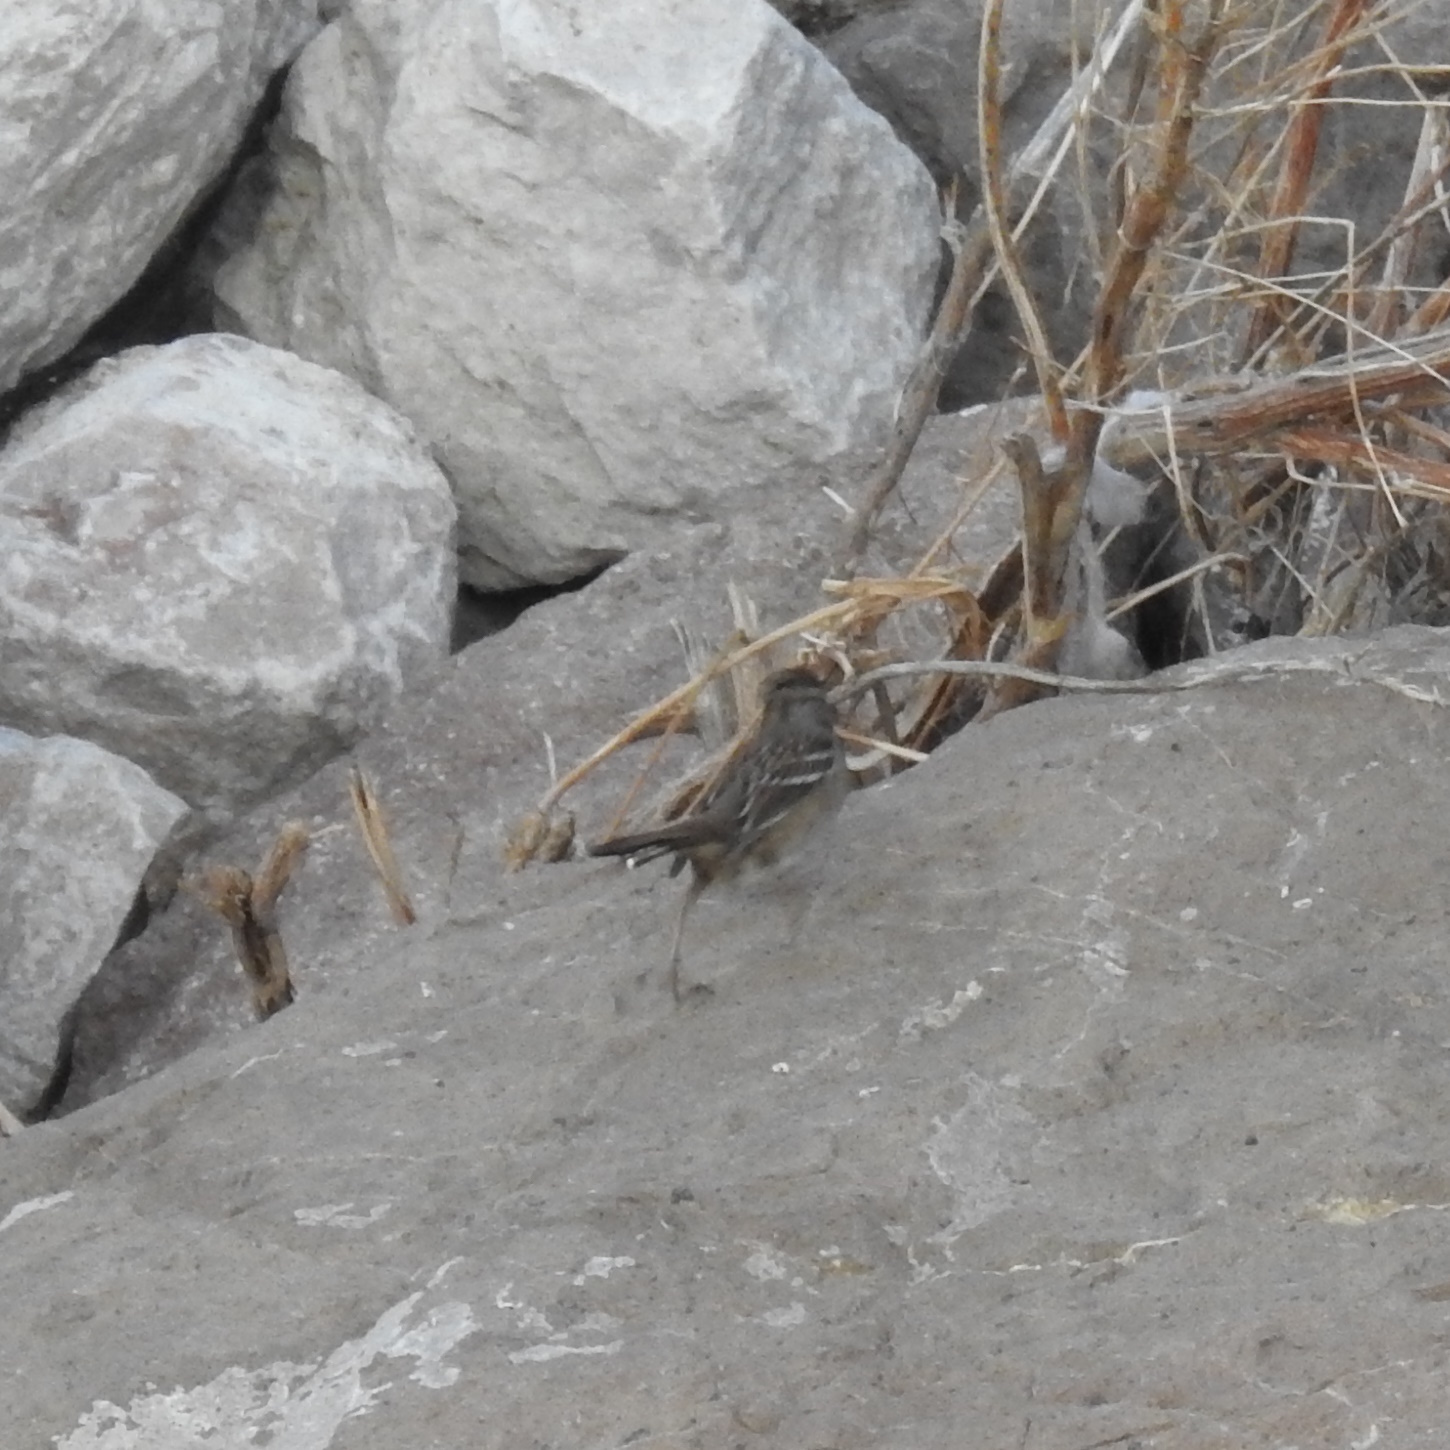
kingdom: Animalia
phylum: Chordata
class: Aves
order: Passeriformes
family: Passerellidae
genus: Zonotrichia
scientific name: Zonotrichia leucophrys
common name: White-crowned sparrow
